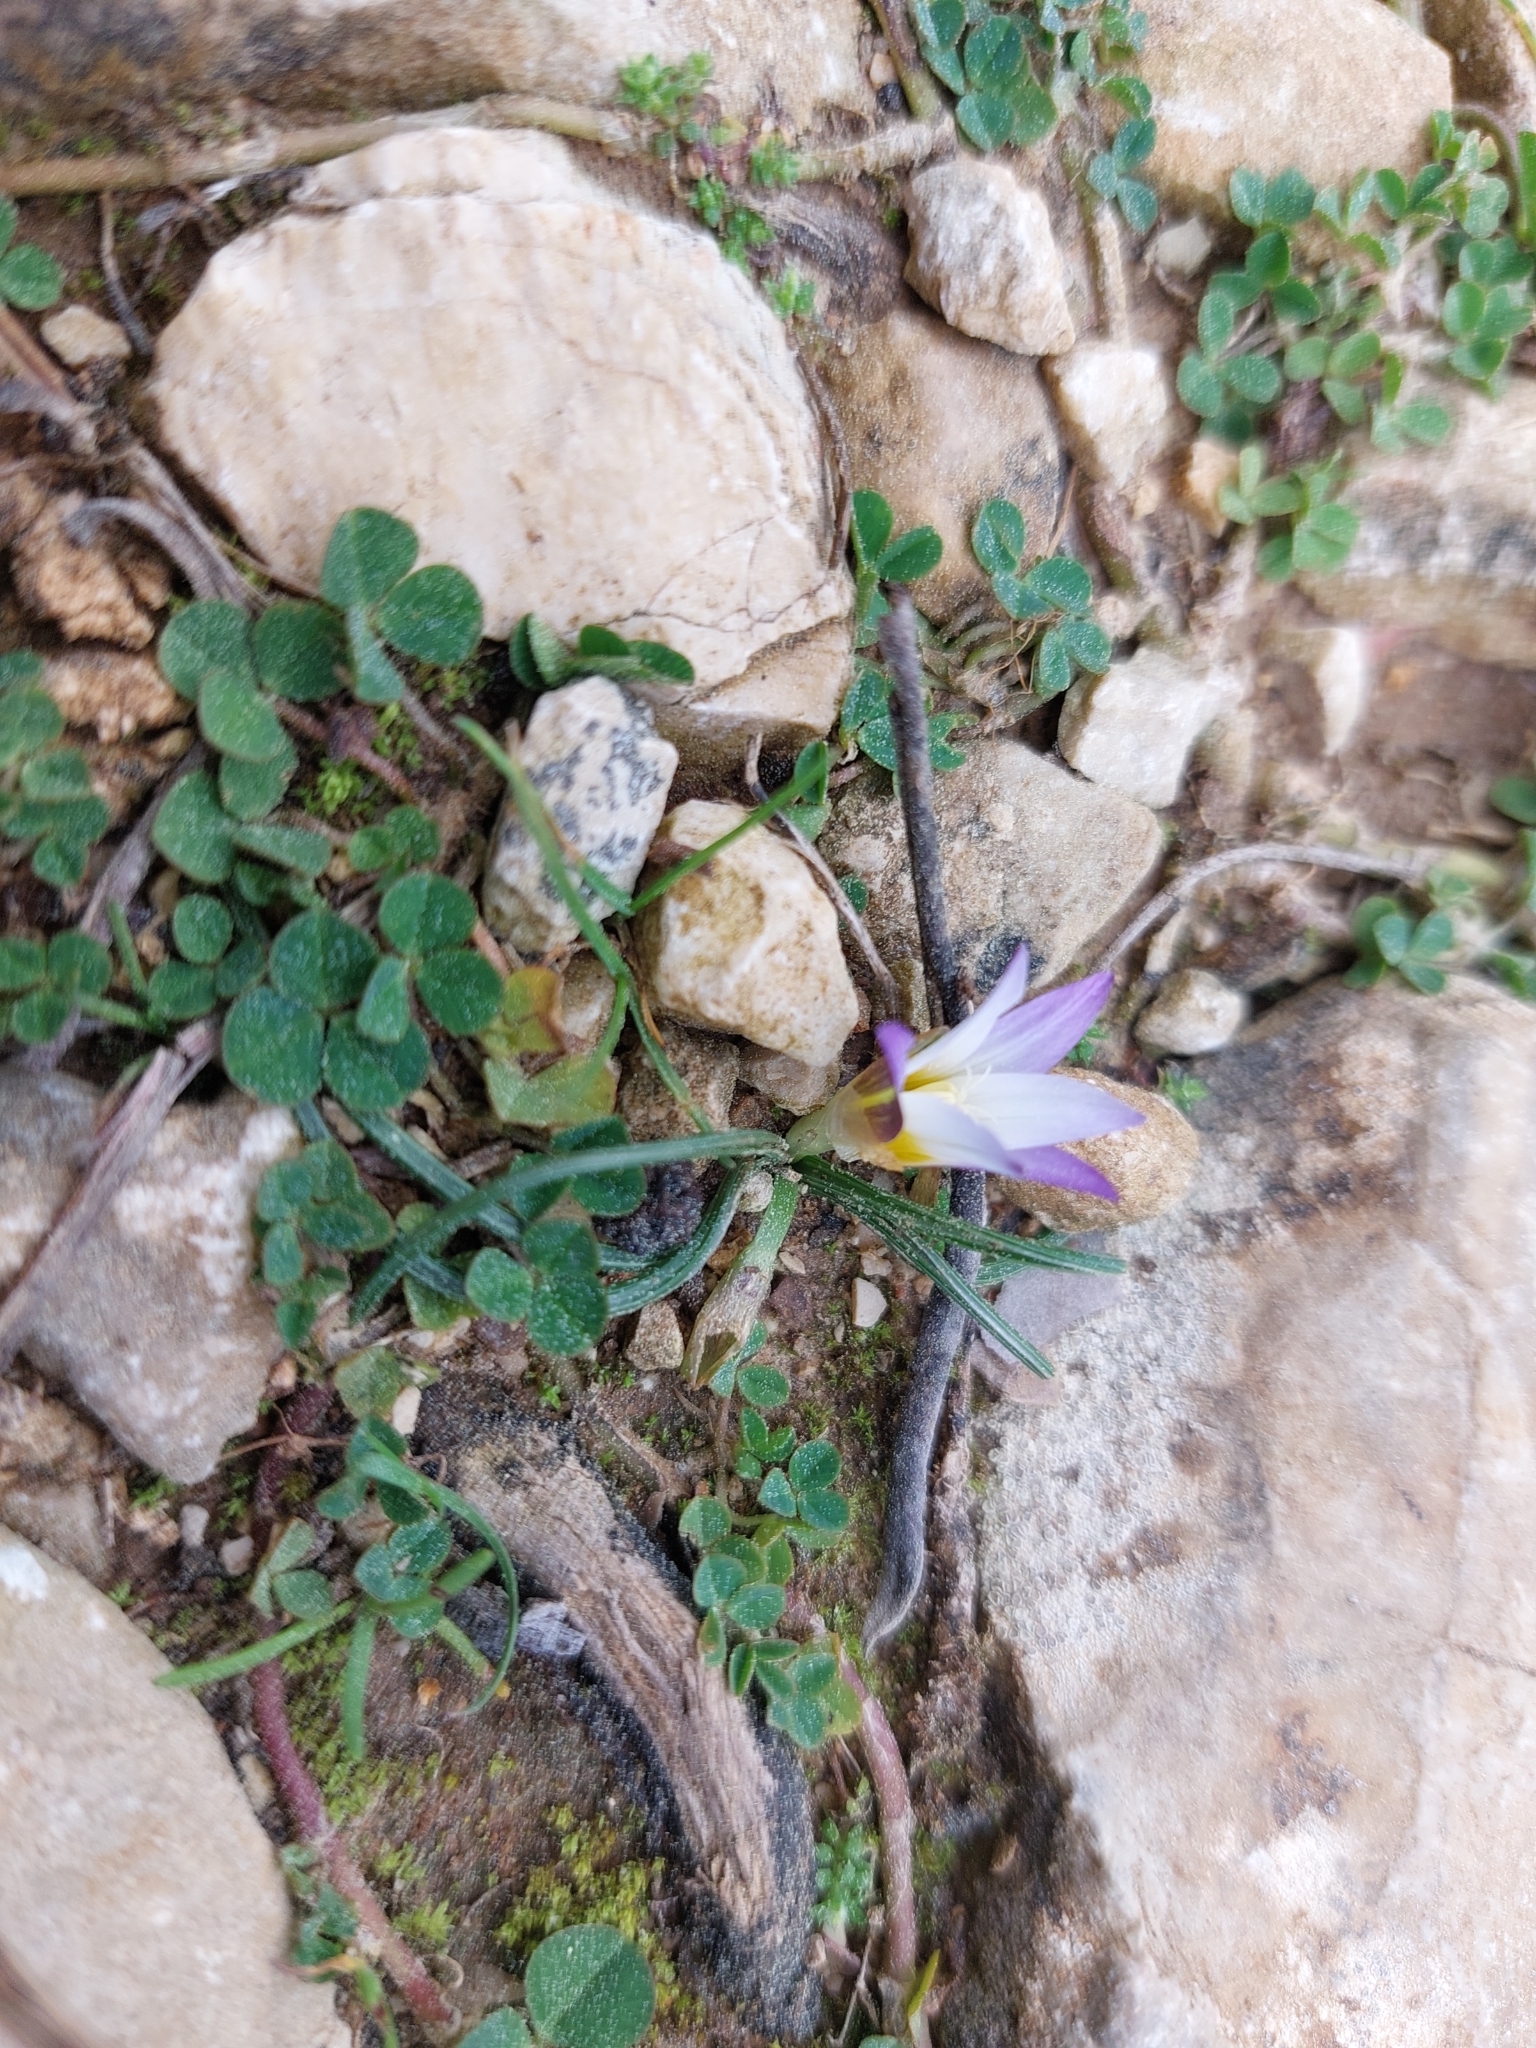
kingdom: Plantae
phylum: Tracheophyta
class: Liliopsida
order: Asparagales
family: Iridaceae
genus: Romulea
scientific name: Romulea bulbocodium
